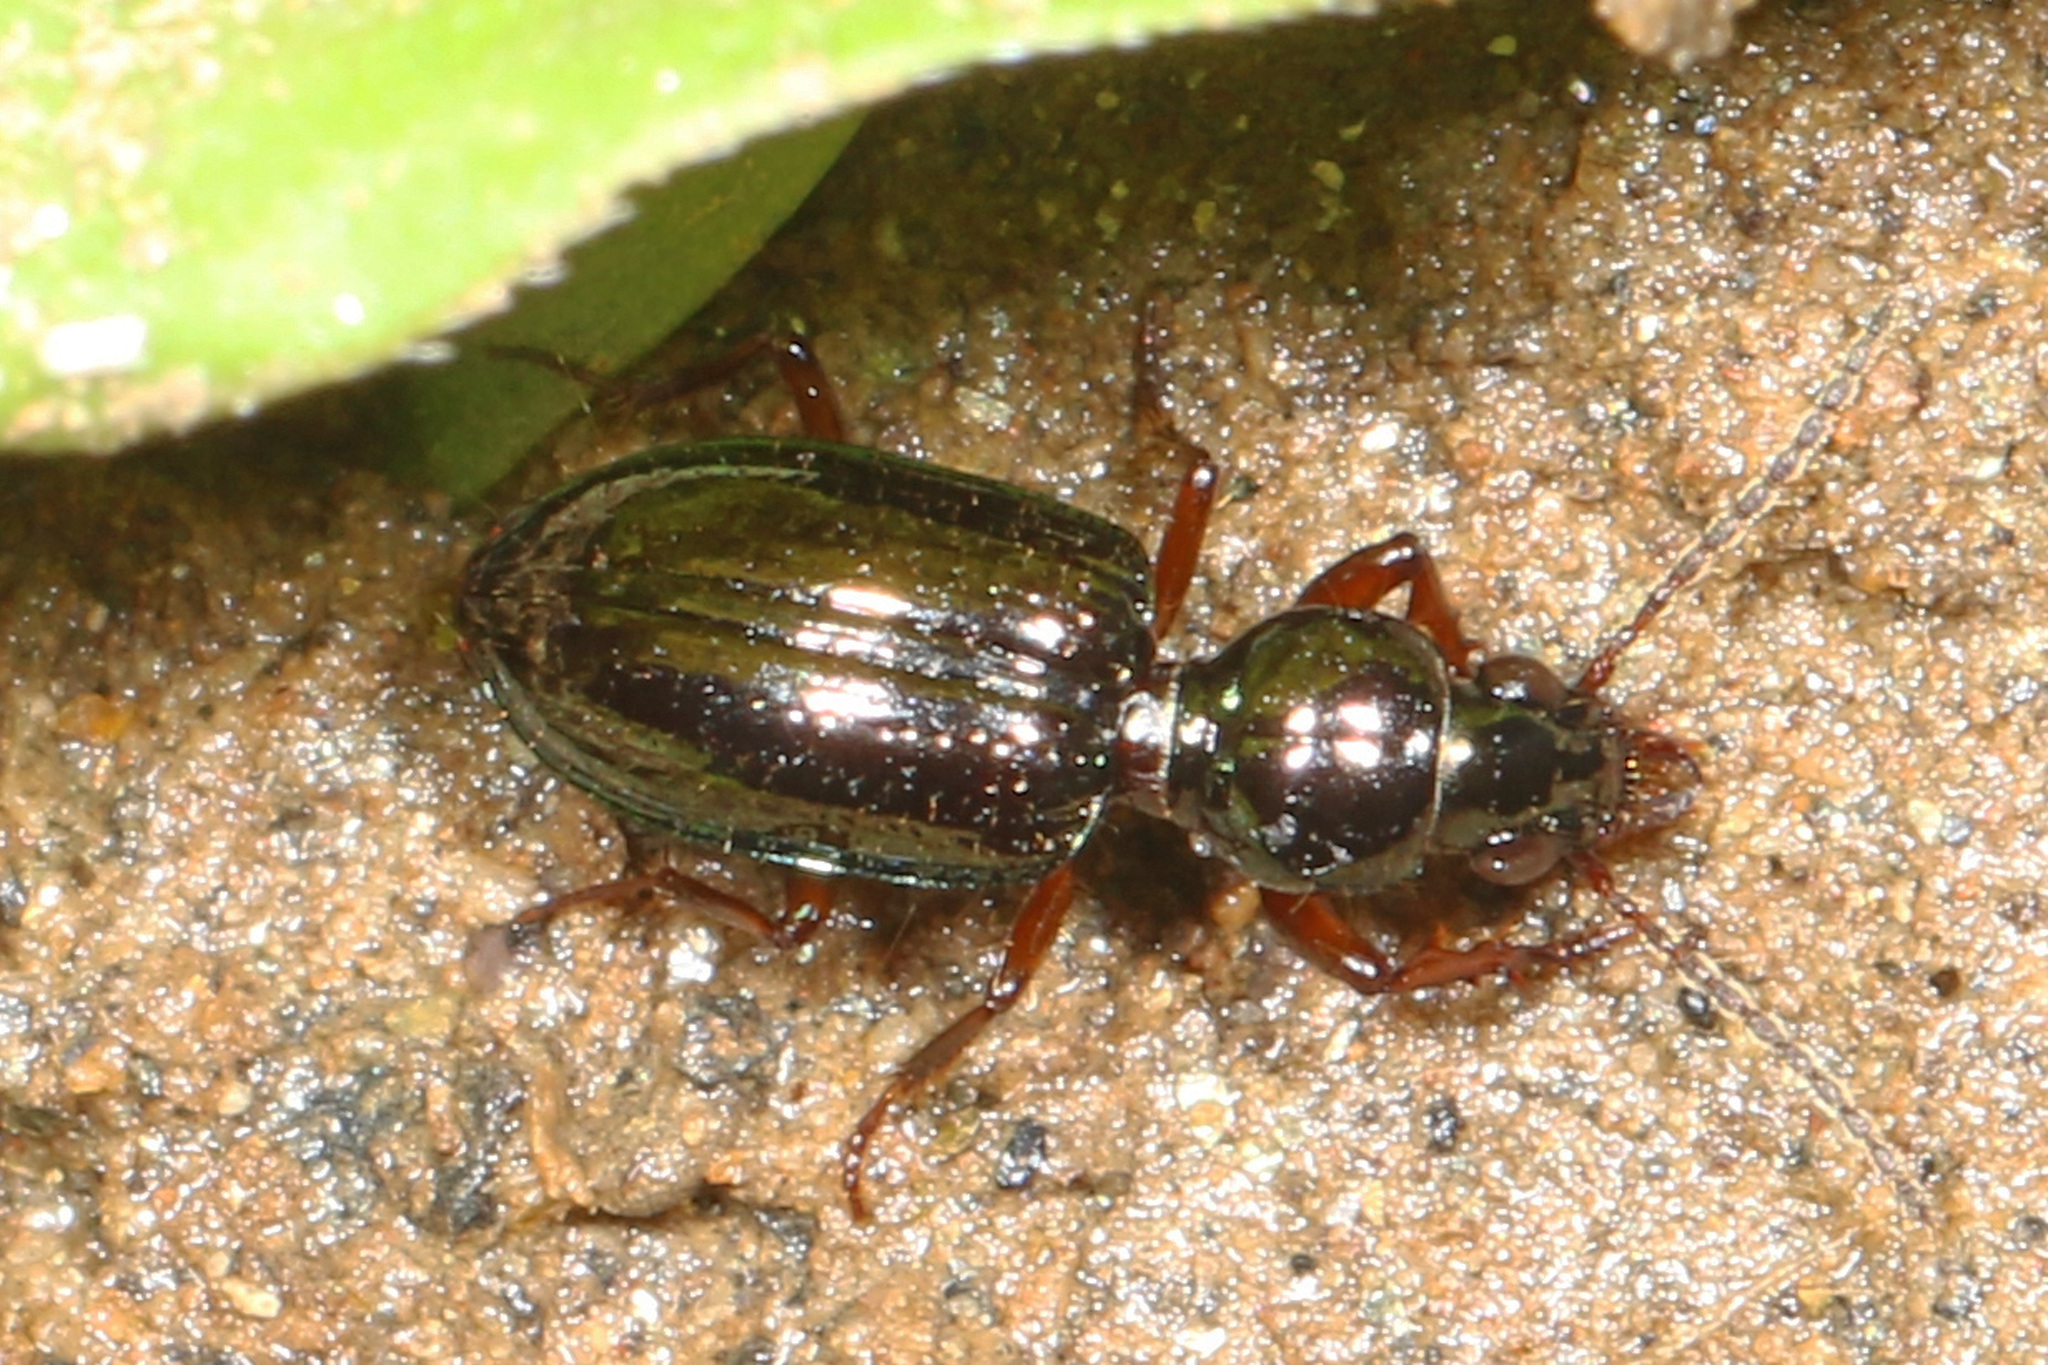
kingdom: Animalia
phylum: Arthropoda
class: Insecta
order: Coleoptera
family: Carabidae
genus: Semiardistomis
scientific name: Semiardistomis viridis
